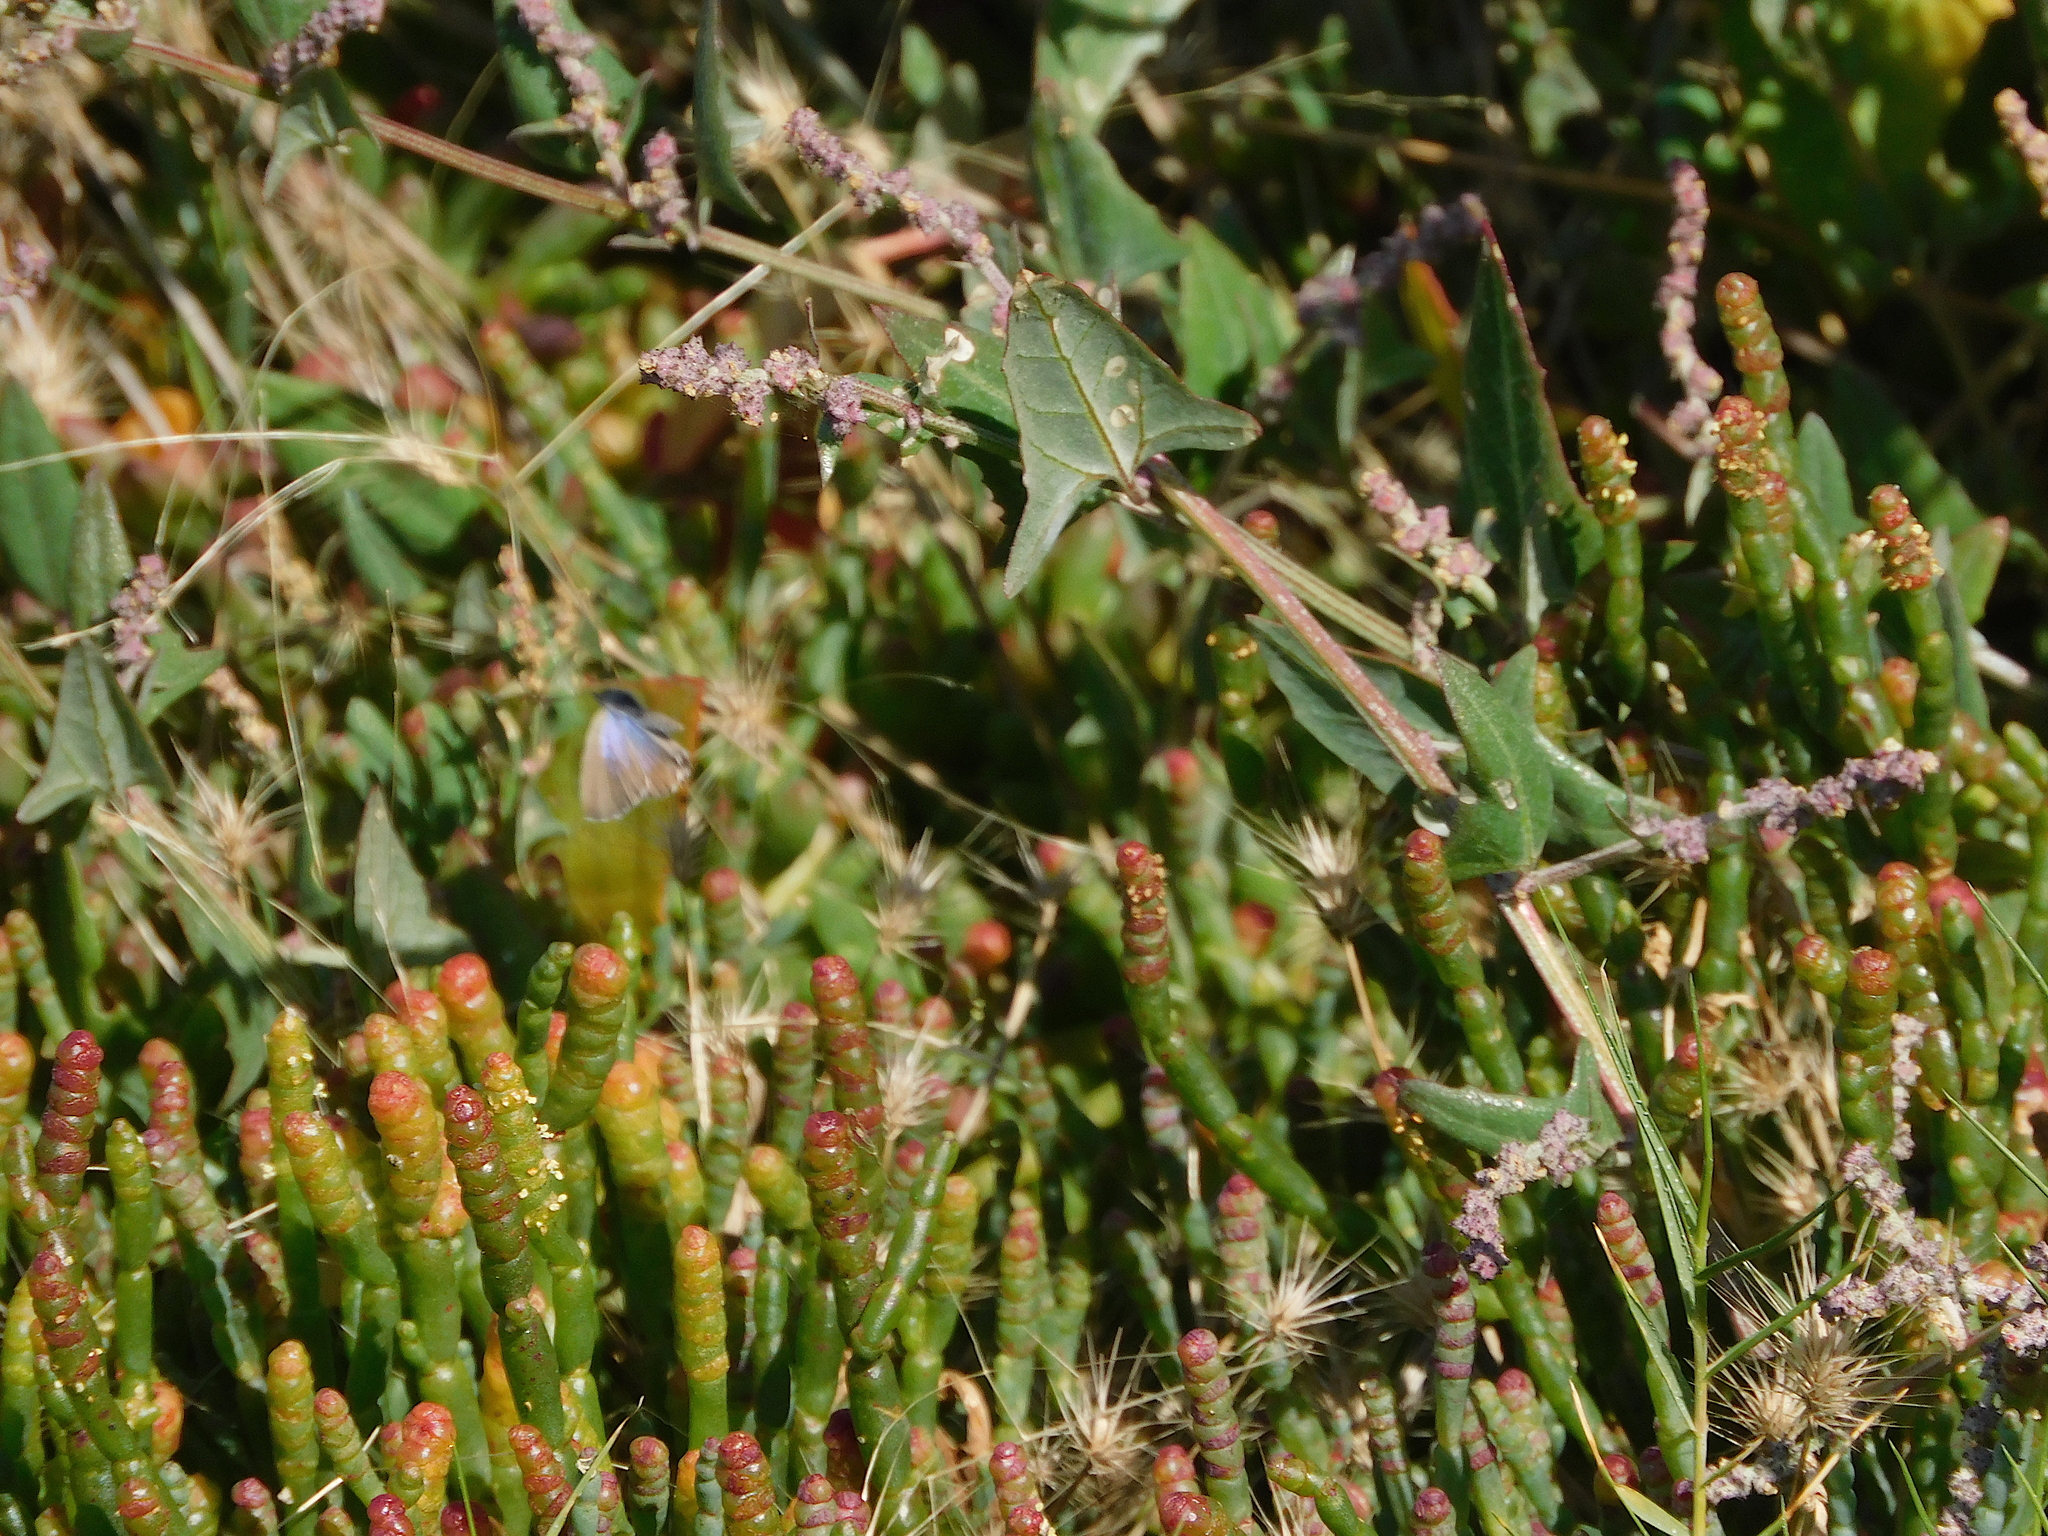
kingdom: Animalia
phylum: Arthropoda
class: Insecta
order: Lepidoptera
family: Lycaenidae
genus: Theclinesthes
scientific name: Theclinesthes serpentata
